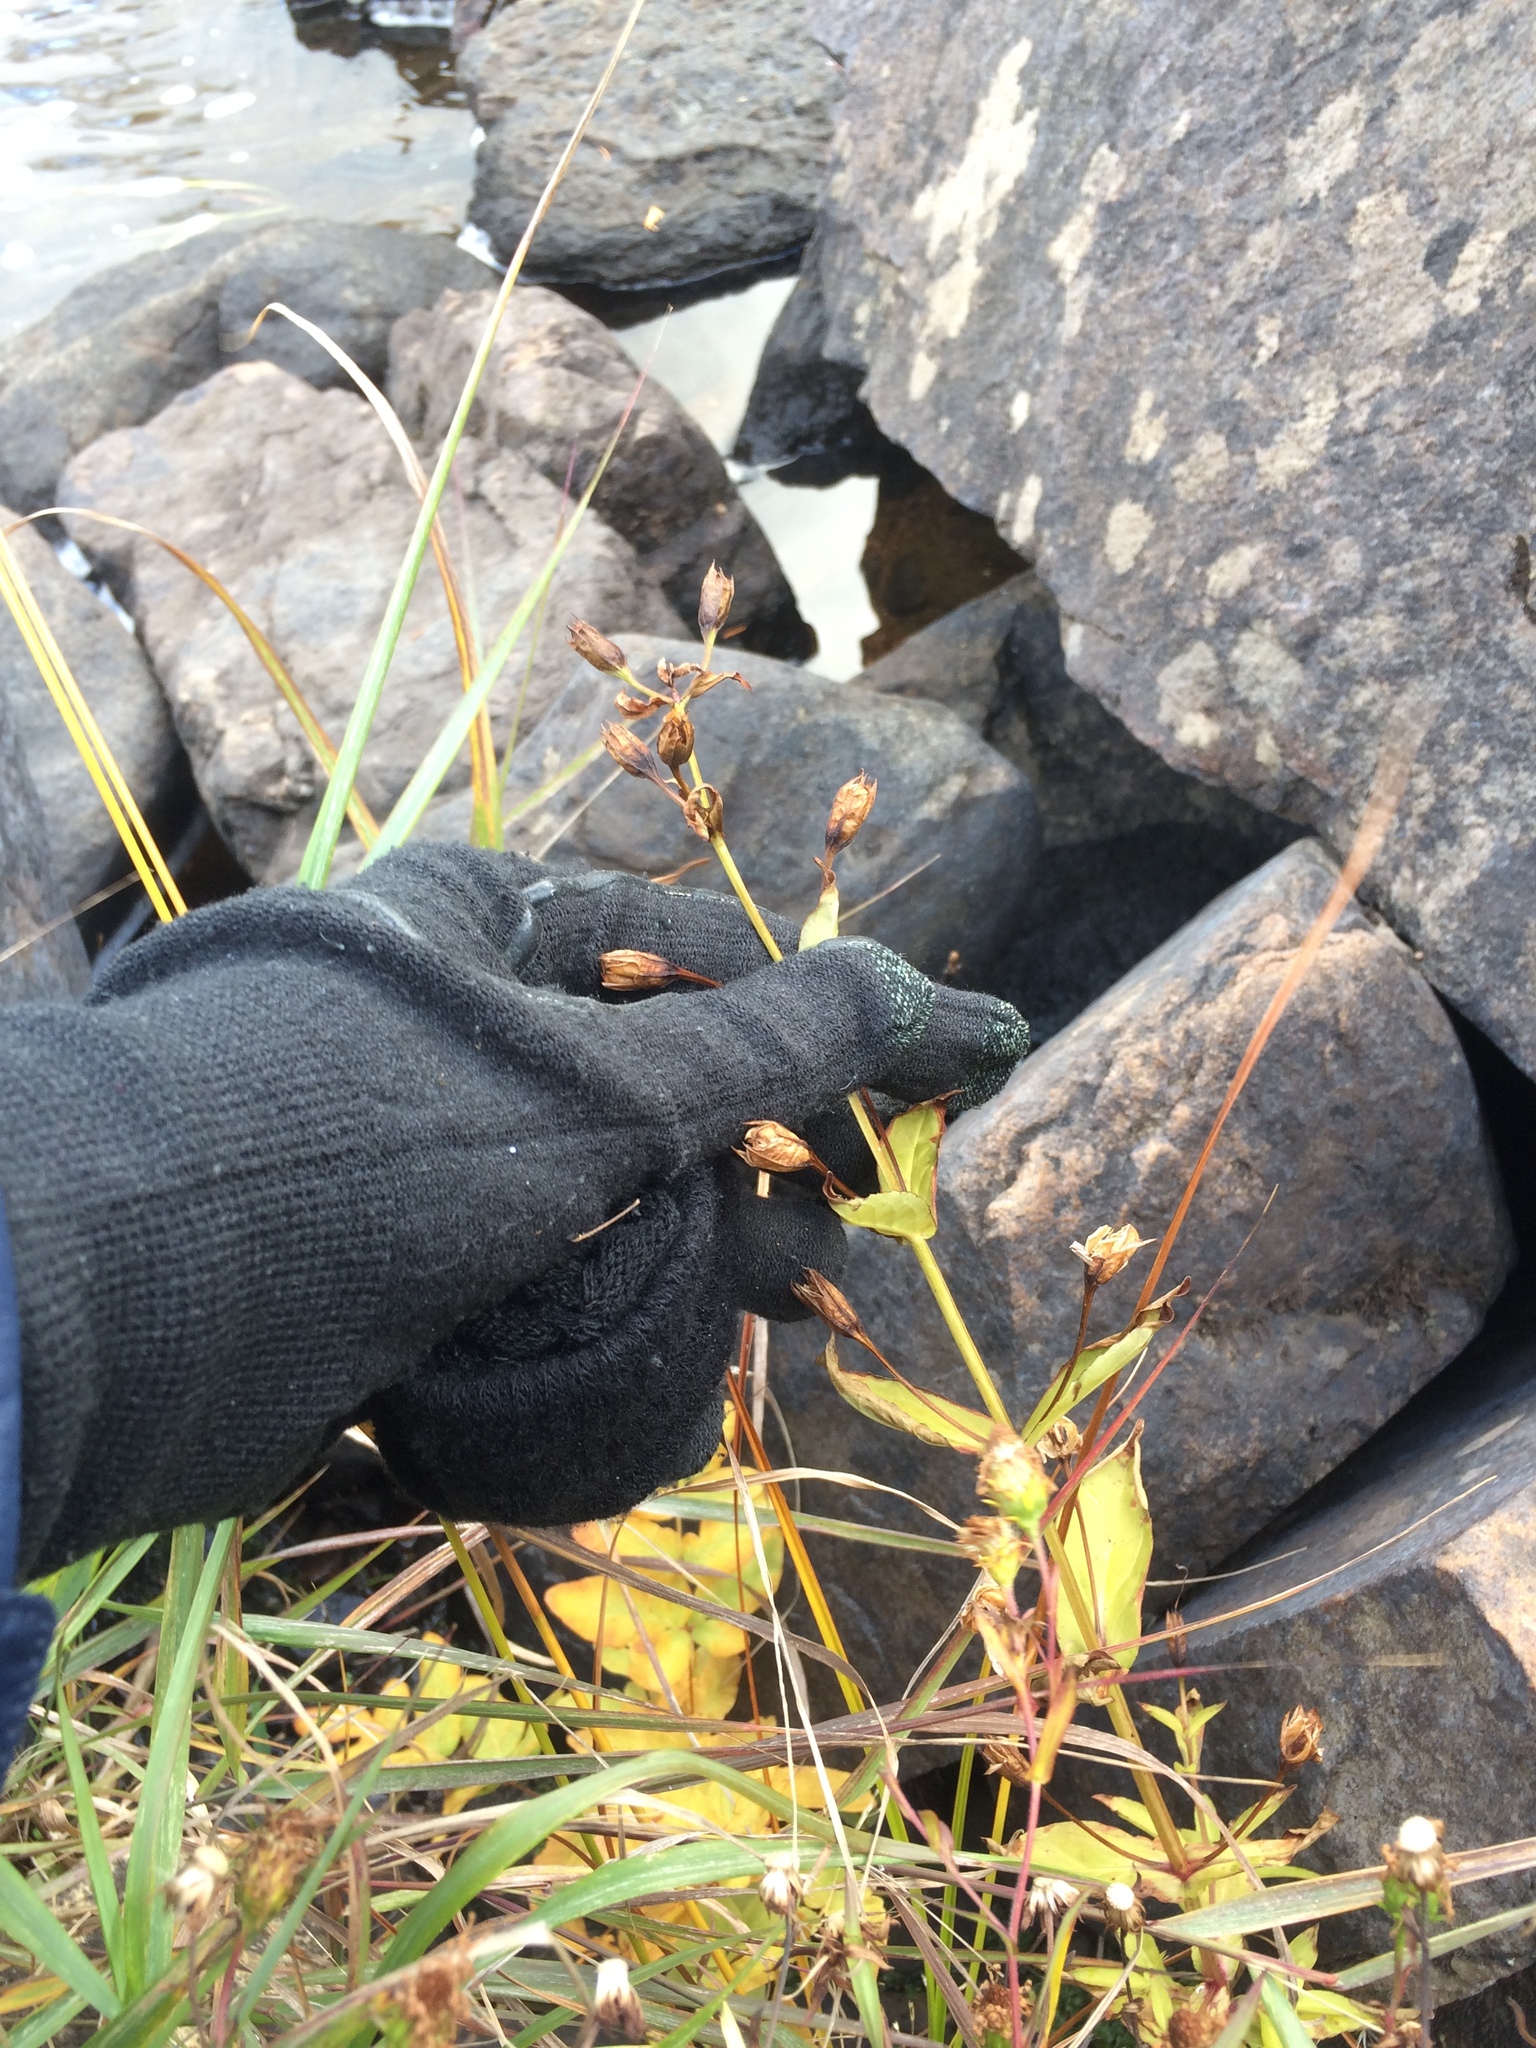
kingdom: Plantae
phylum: Tracheophyta
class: Magnoliopsida
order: Lamiales
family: Phrymaceae
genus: Mimulus
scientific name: Mimulus ringens
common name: Allegheny monkeyflower
